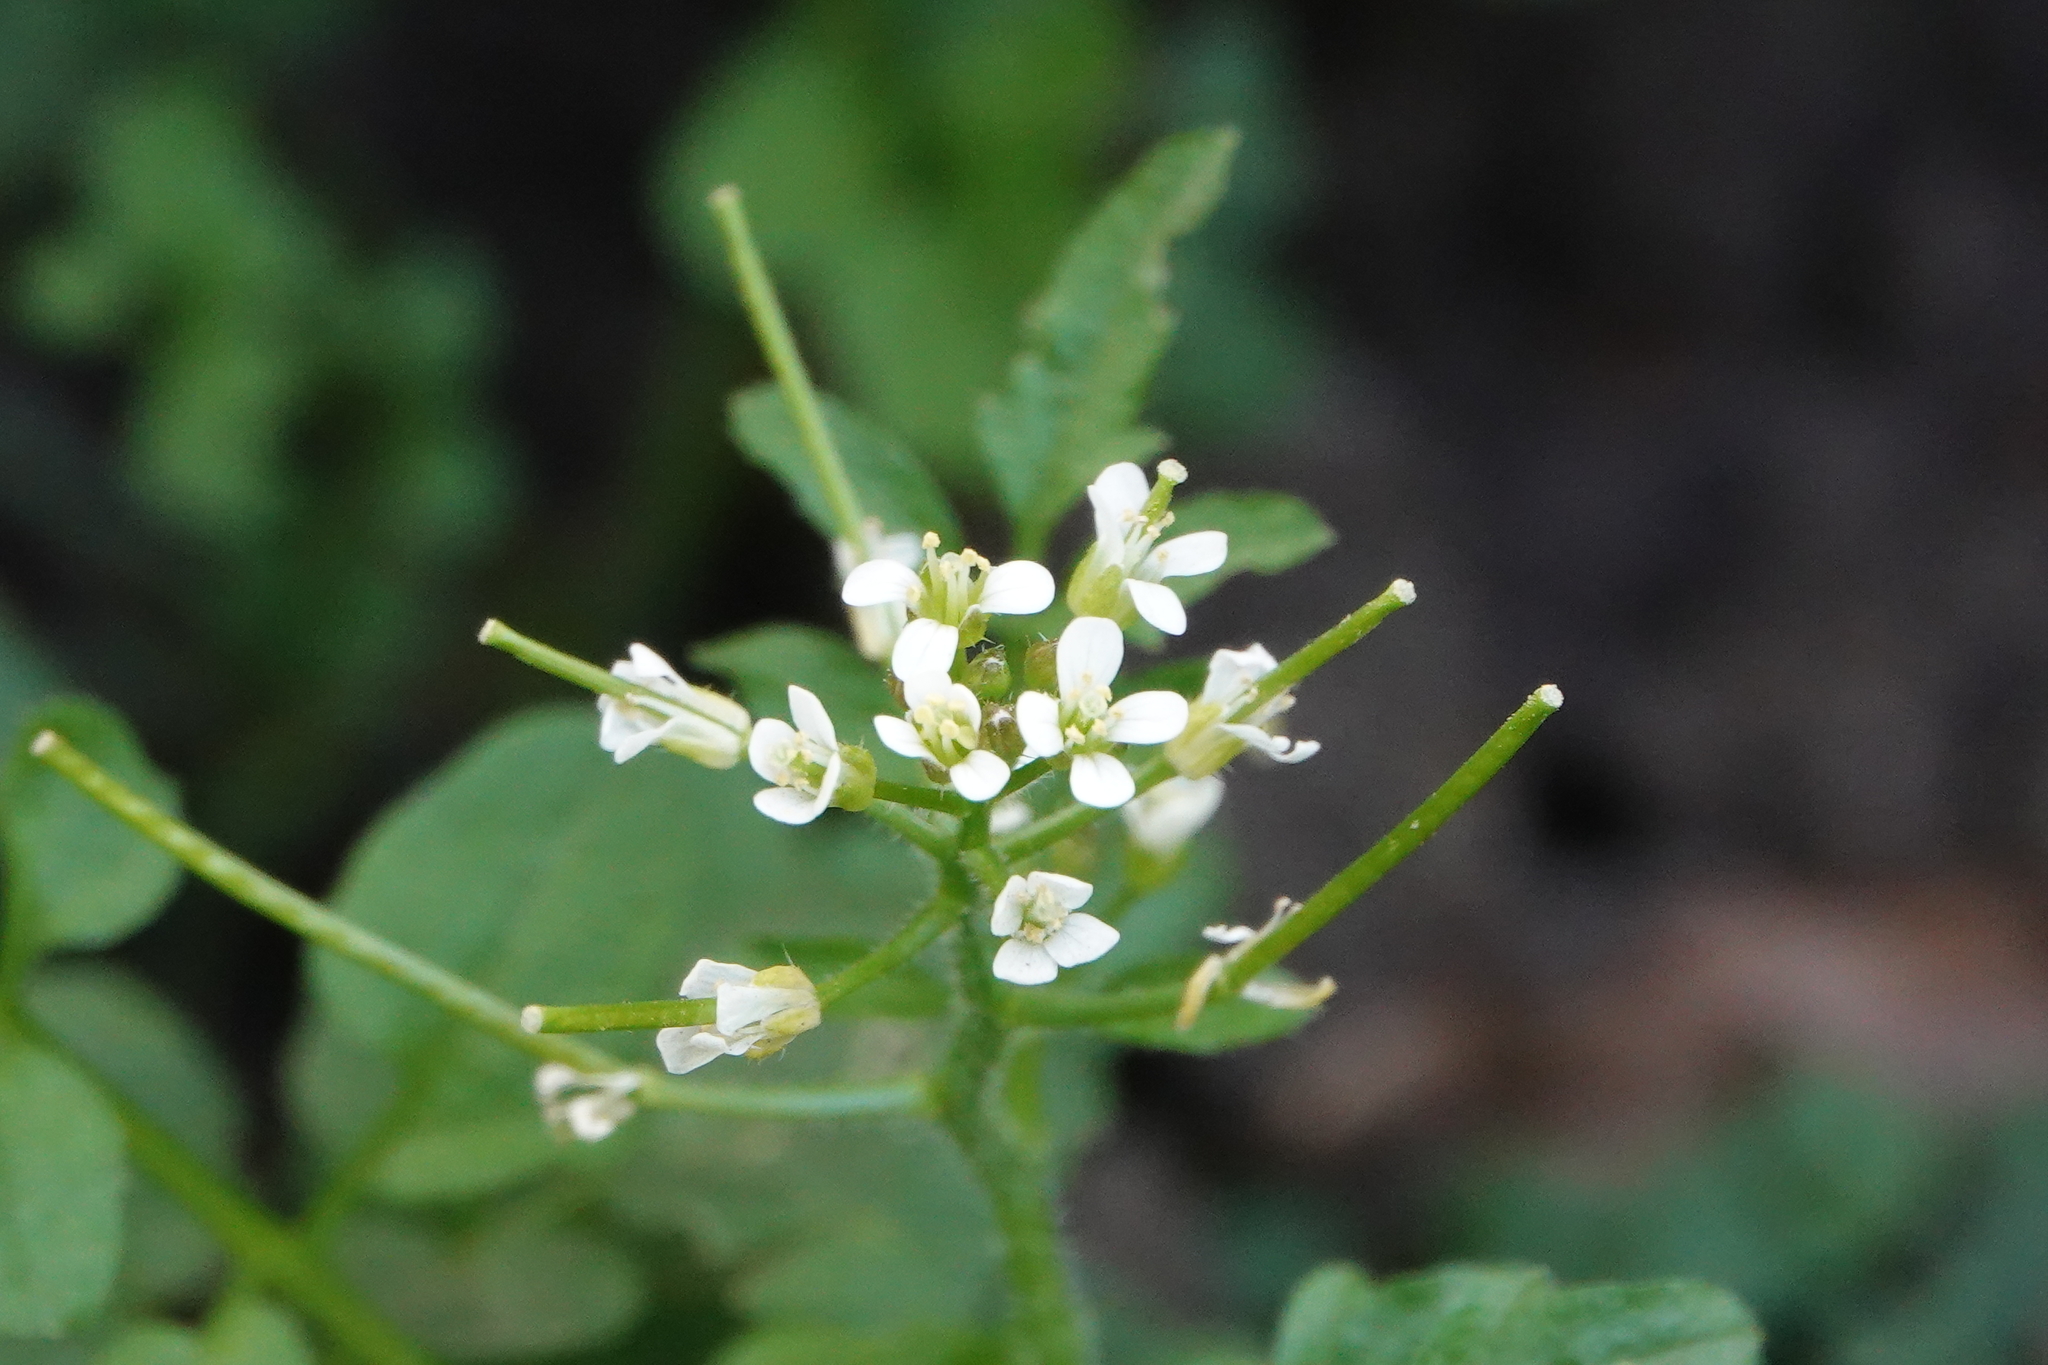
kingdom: Plantae
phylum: Tracheophyta
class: Magnoliopsida
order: Brassicales
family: Brassicaceae
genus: Cardamine
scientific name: Cardamine flexuosa
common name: Woodland bittercress
